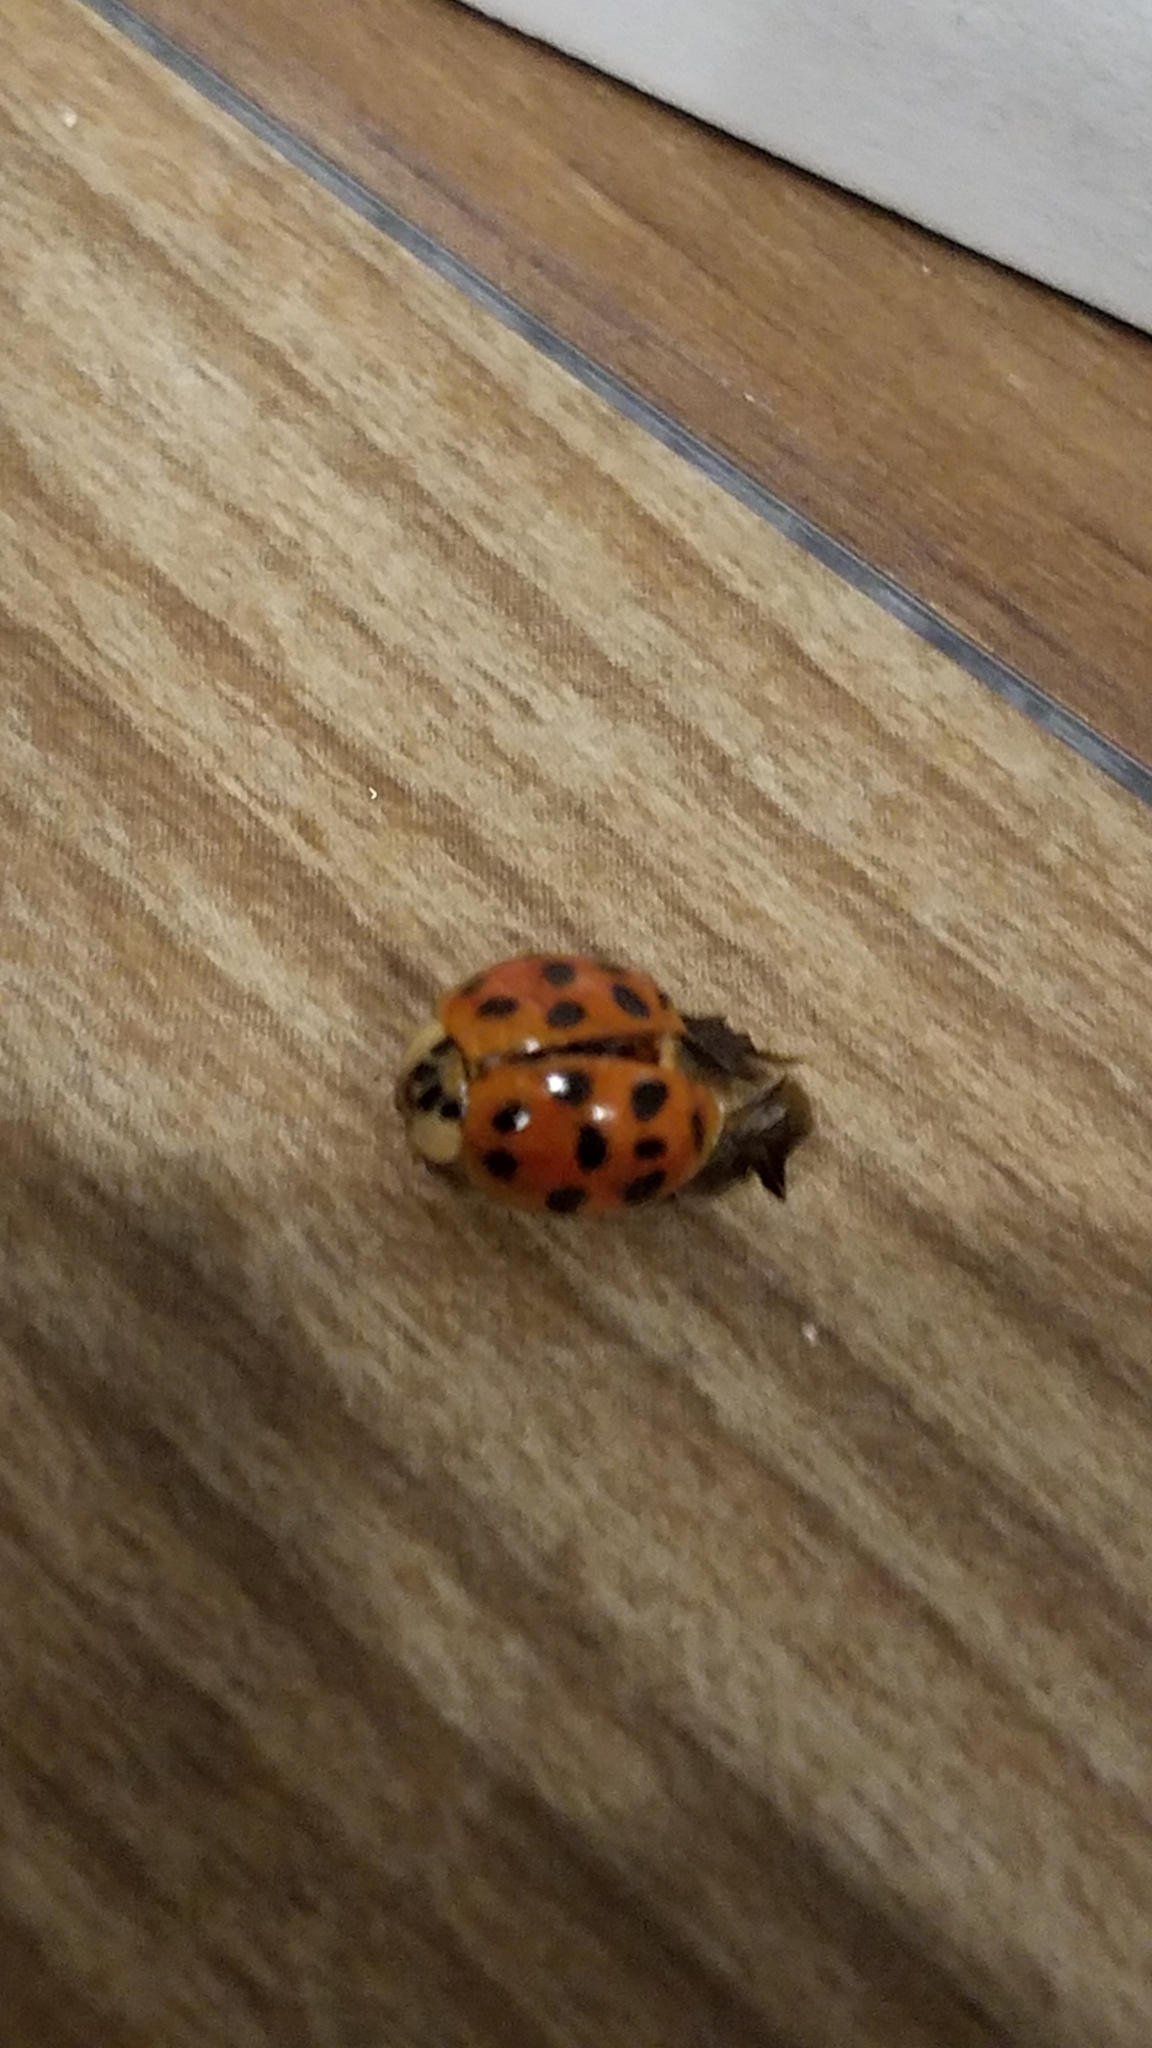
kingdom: Animalia
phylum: Arthropoda
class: Insecta
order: Coleoptera
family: Coccinellidae
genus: Harmonia
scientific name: Harmonia axyridis
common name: Harlequin ladybird
